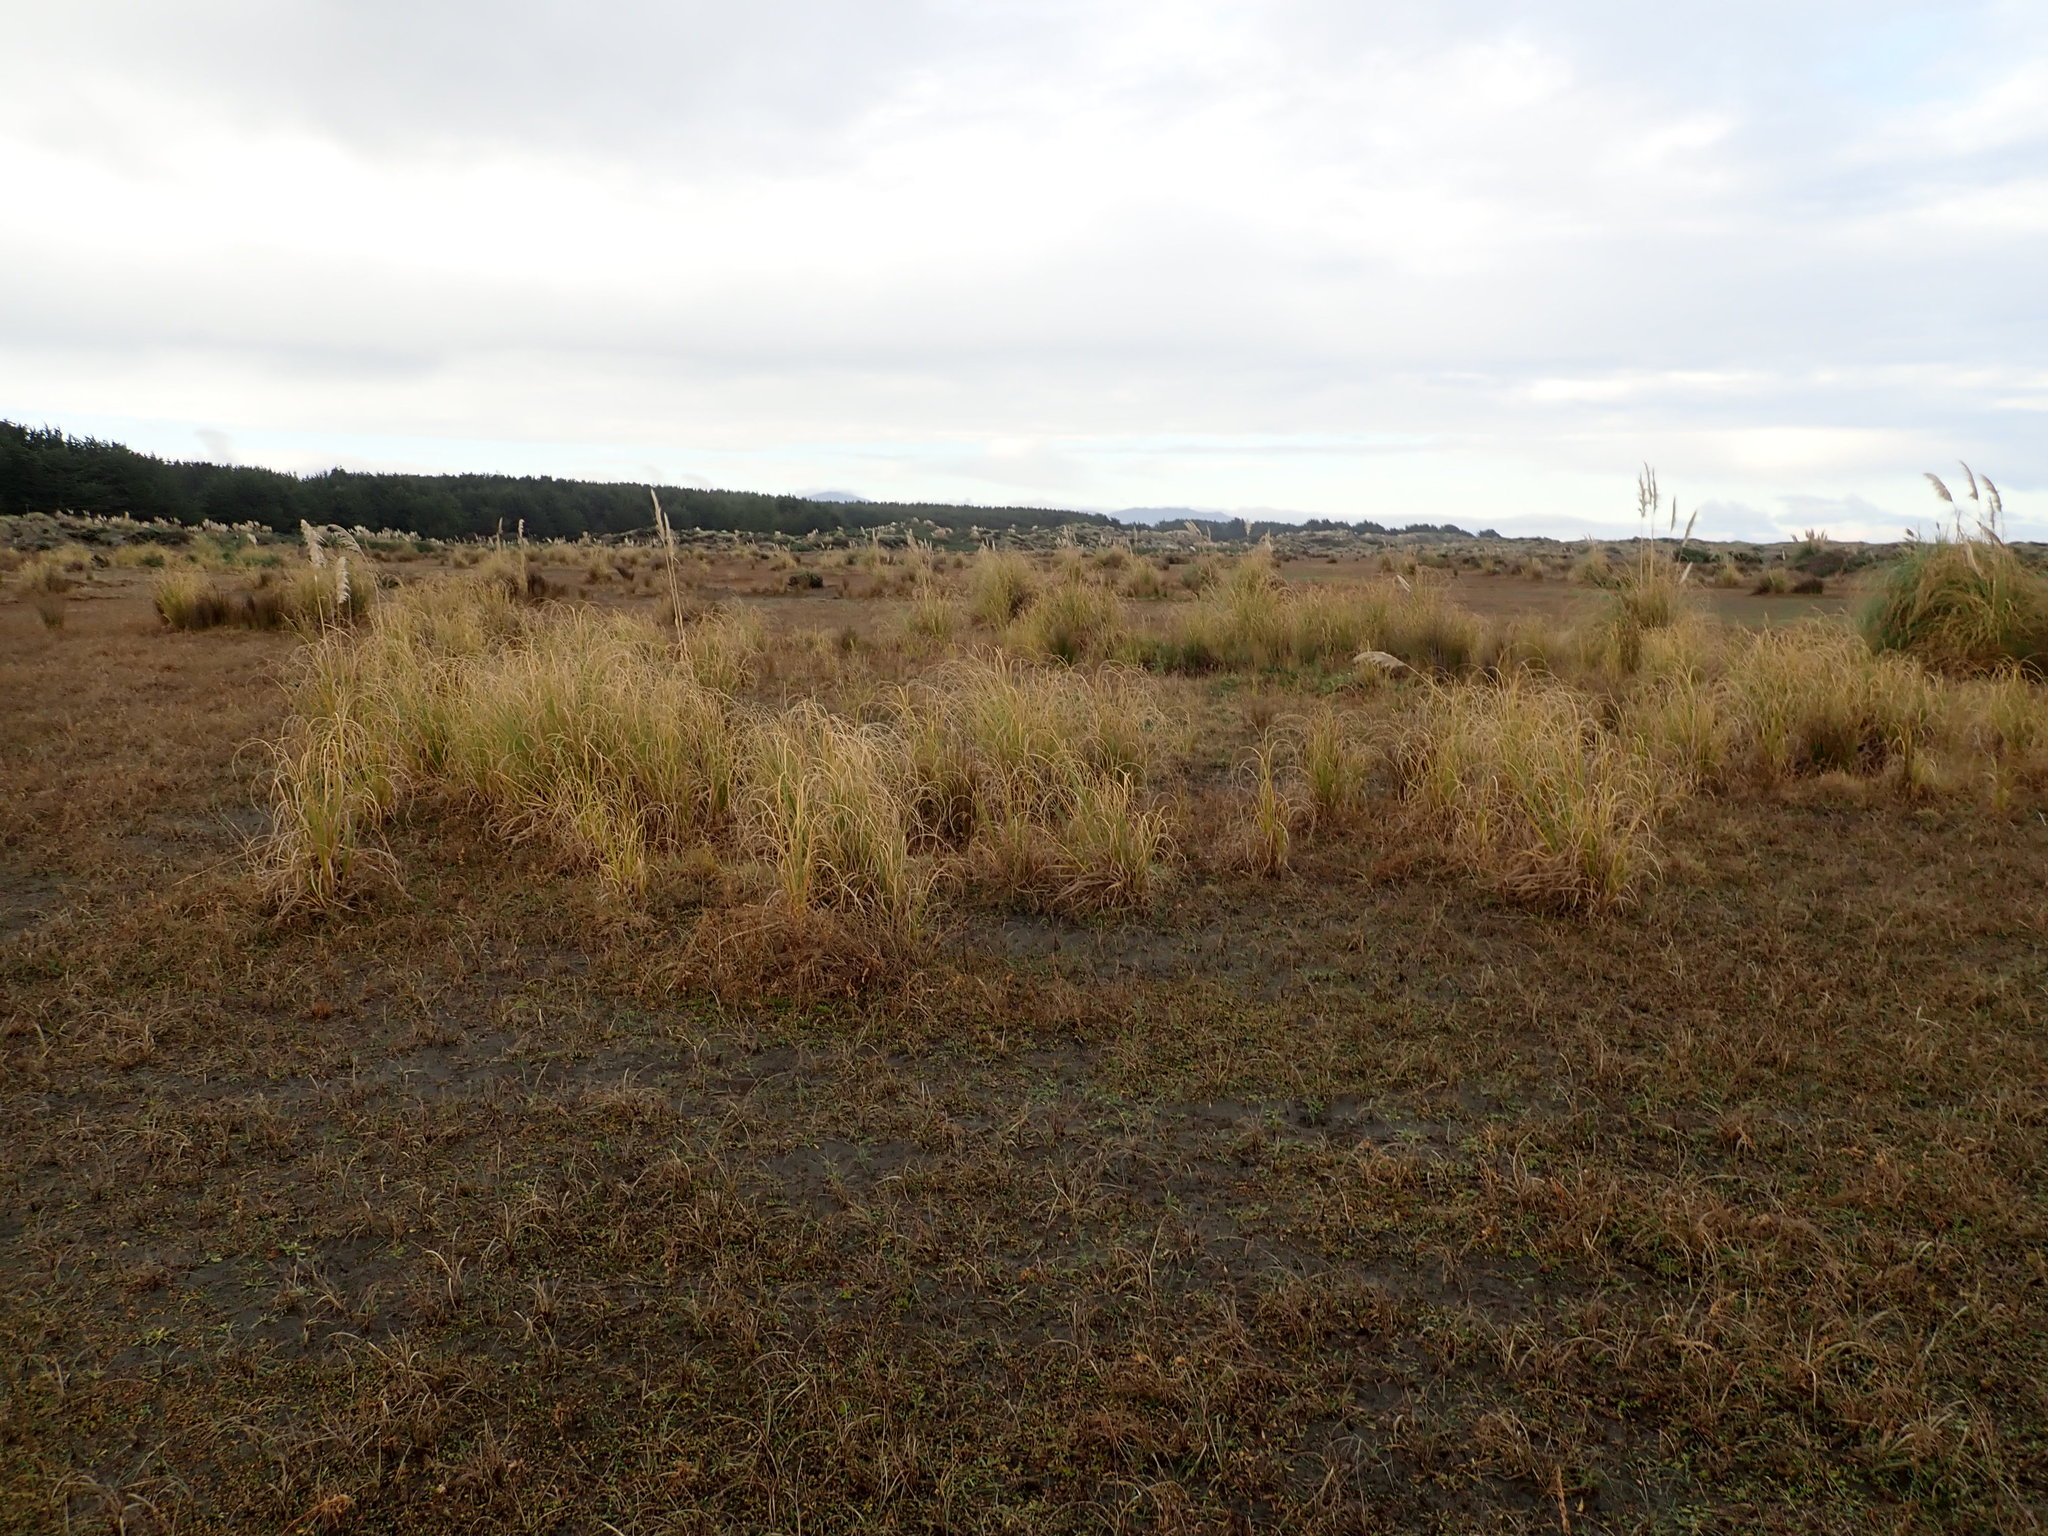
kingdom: Plantae
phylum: Tracheophyta
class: Liliopsida
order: Poales
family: Poaceae
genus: Cortaderia
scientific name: Cortaderia selloana
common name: Uruguayan pampas grass
